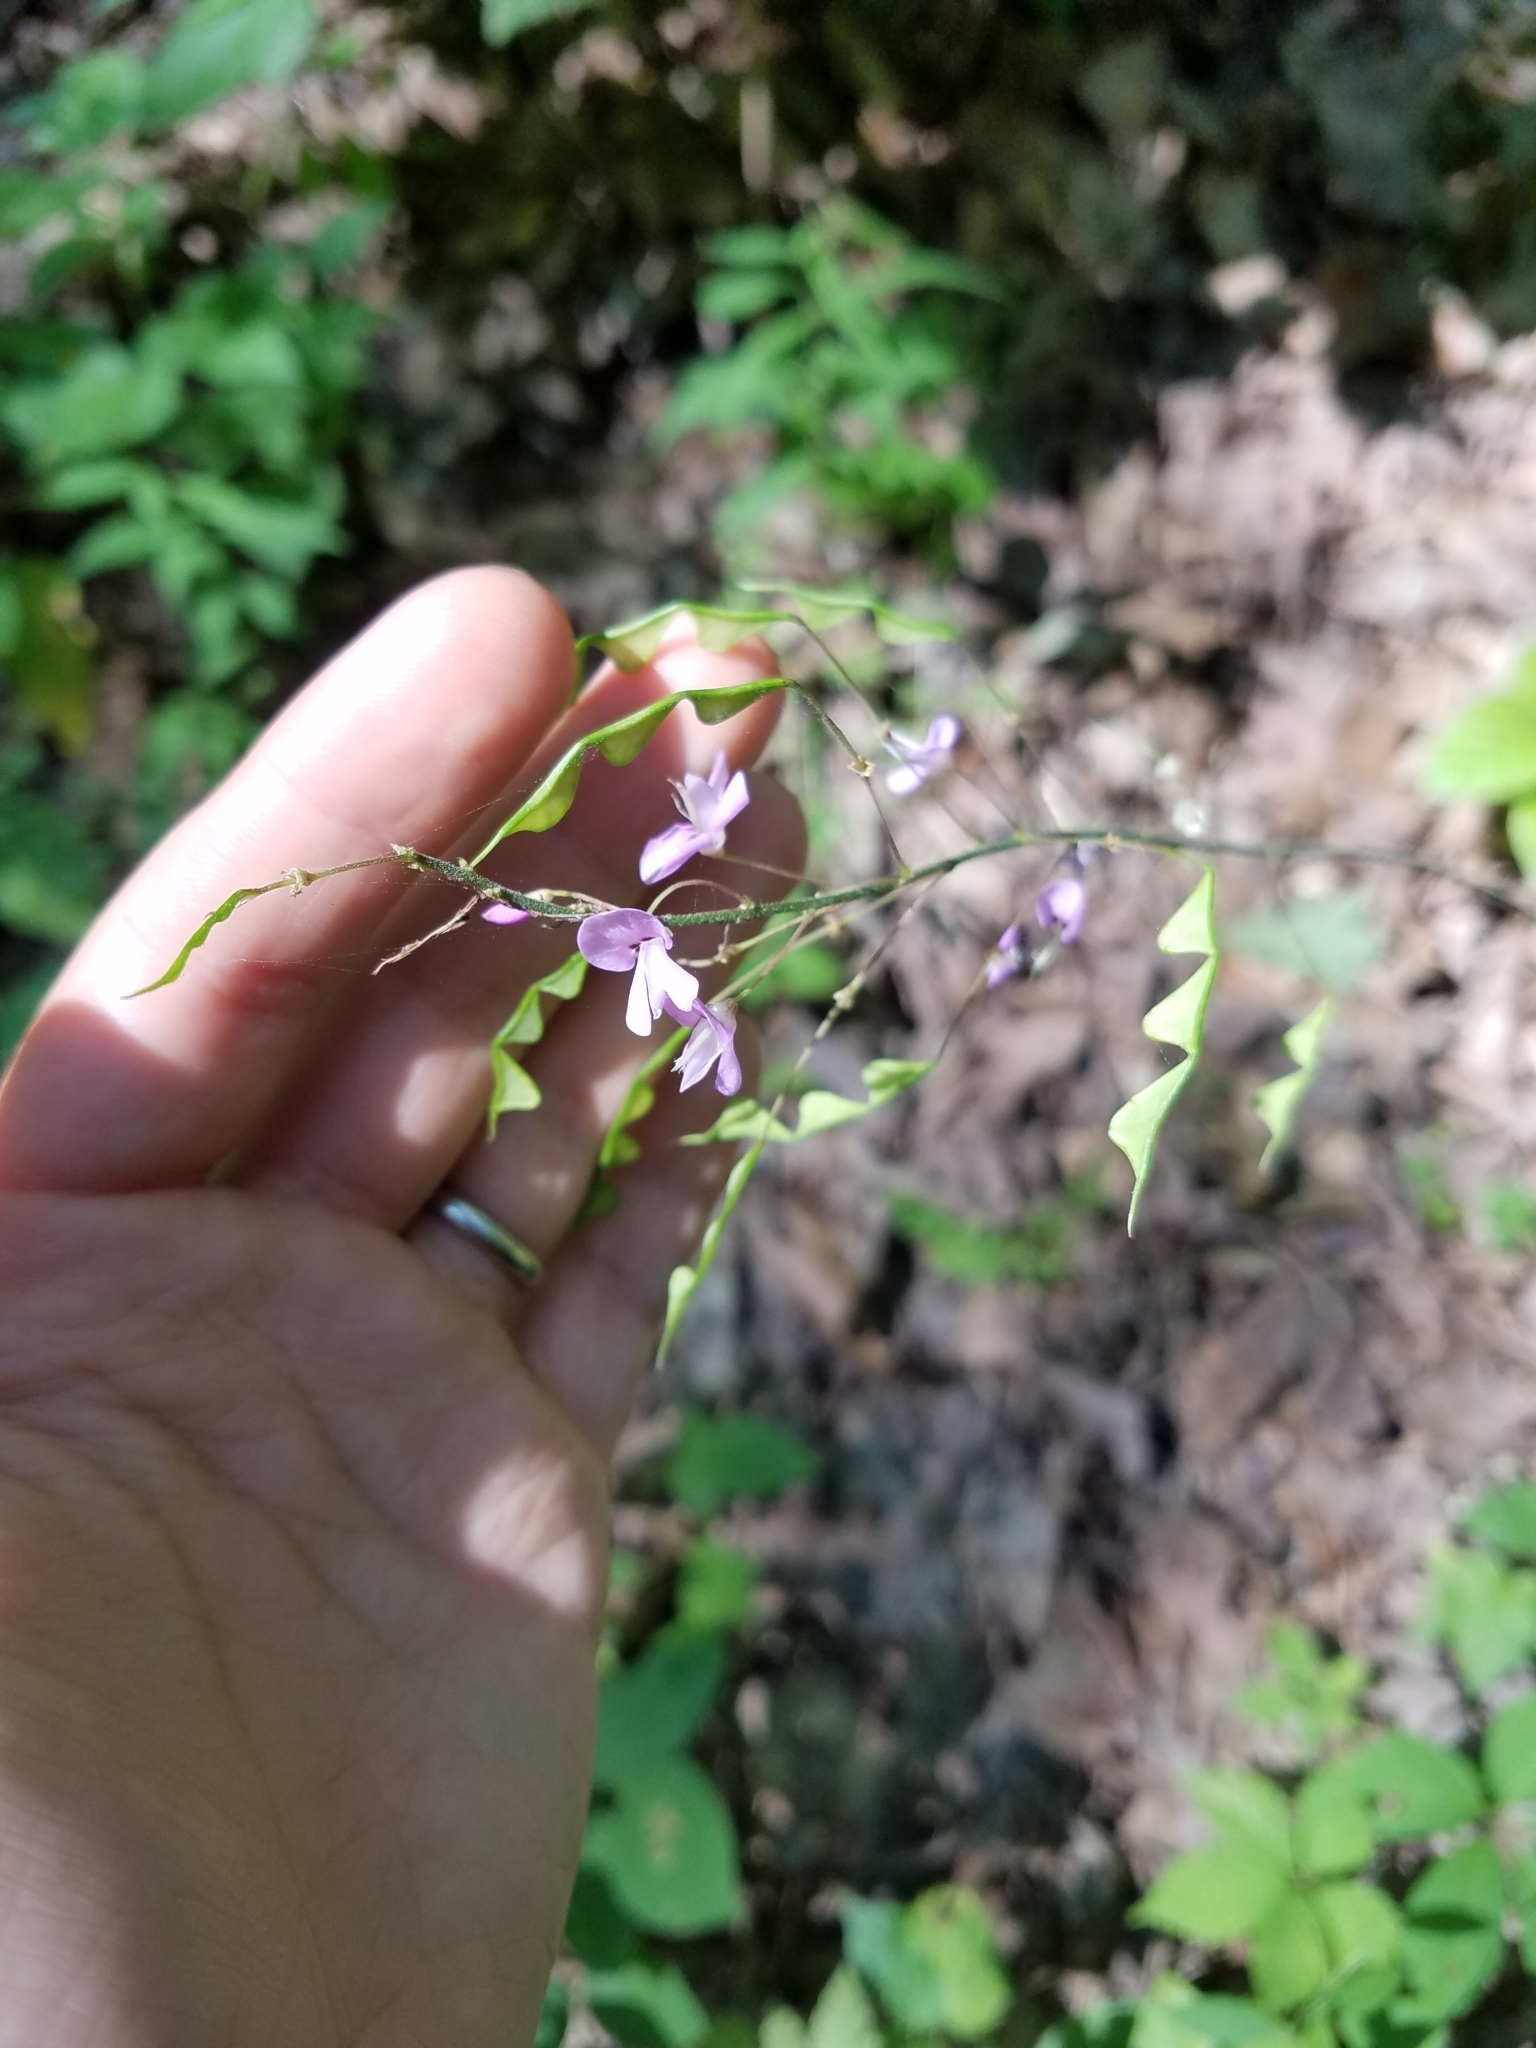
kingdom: Plantae
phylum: Tracheophyta
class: Magnoliopsida
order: Fabales
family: Fabaceae
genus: Hylodesmum
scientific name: Hylodesmum nudiflorum
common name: Bare-stemmed tick-trefoil
